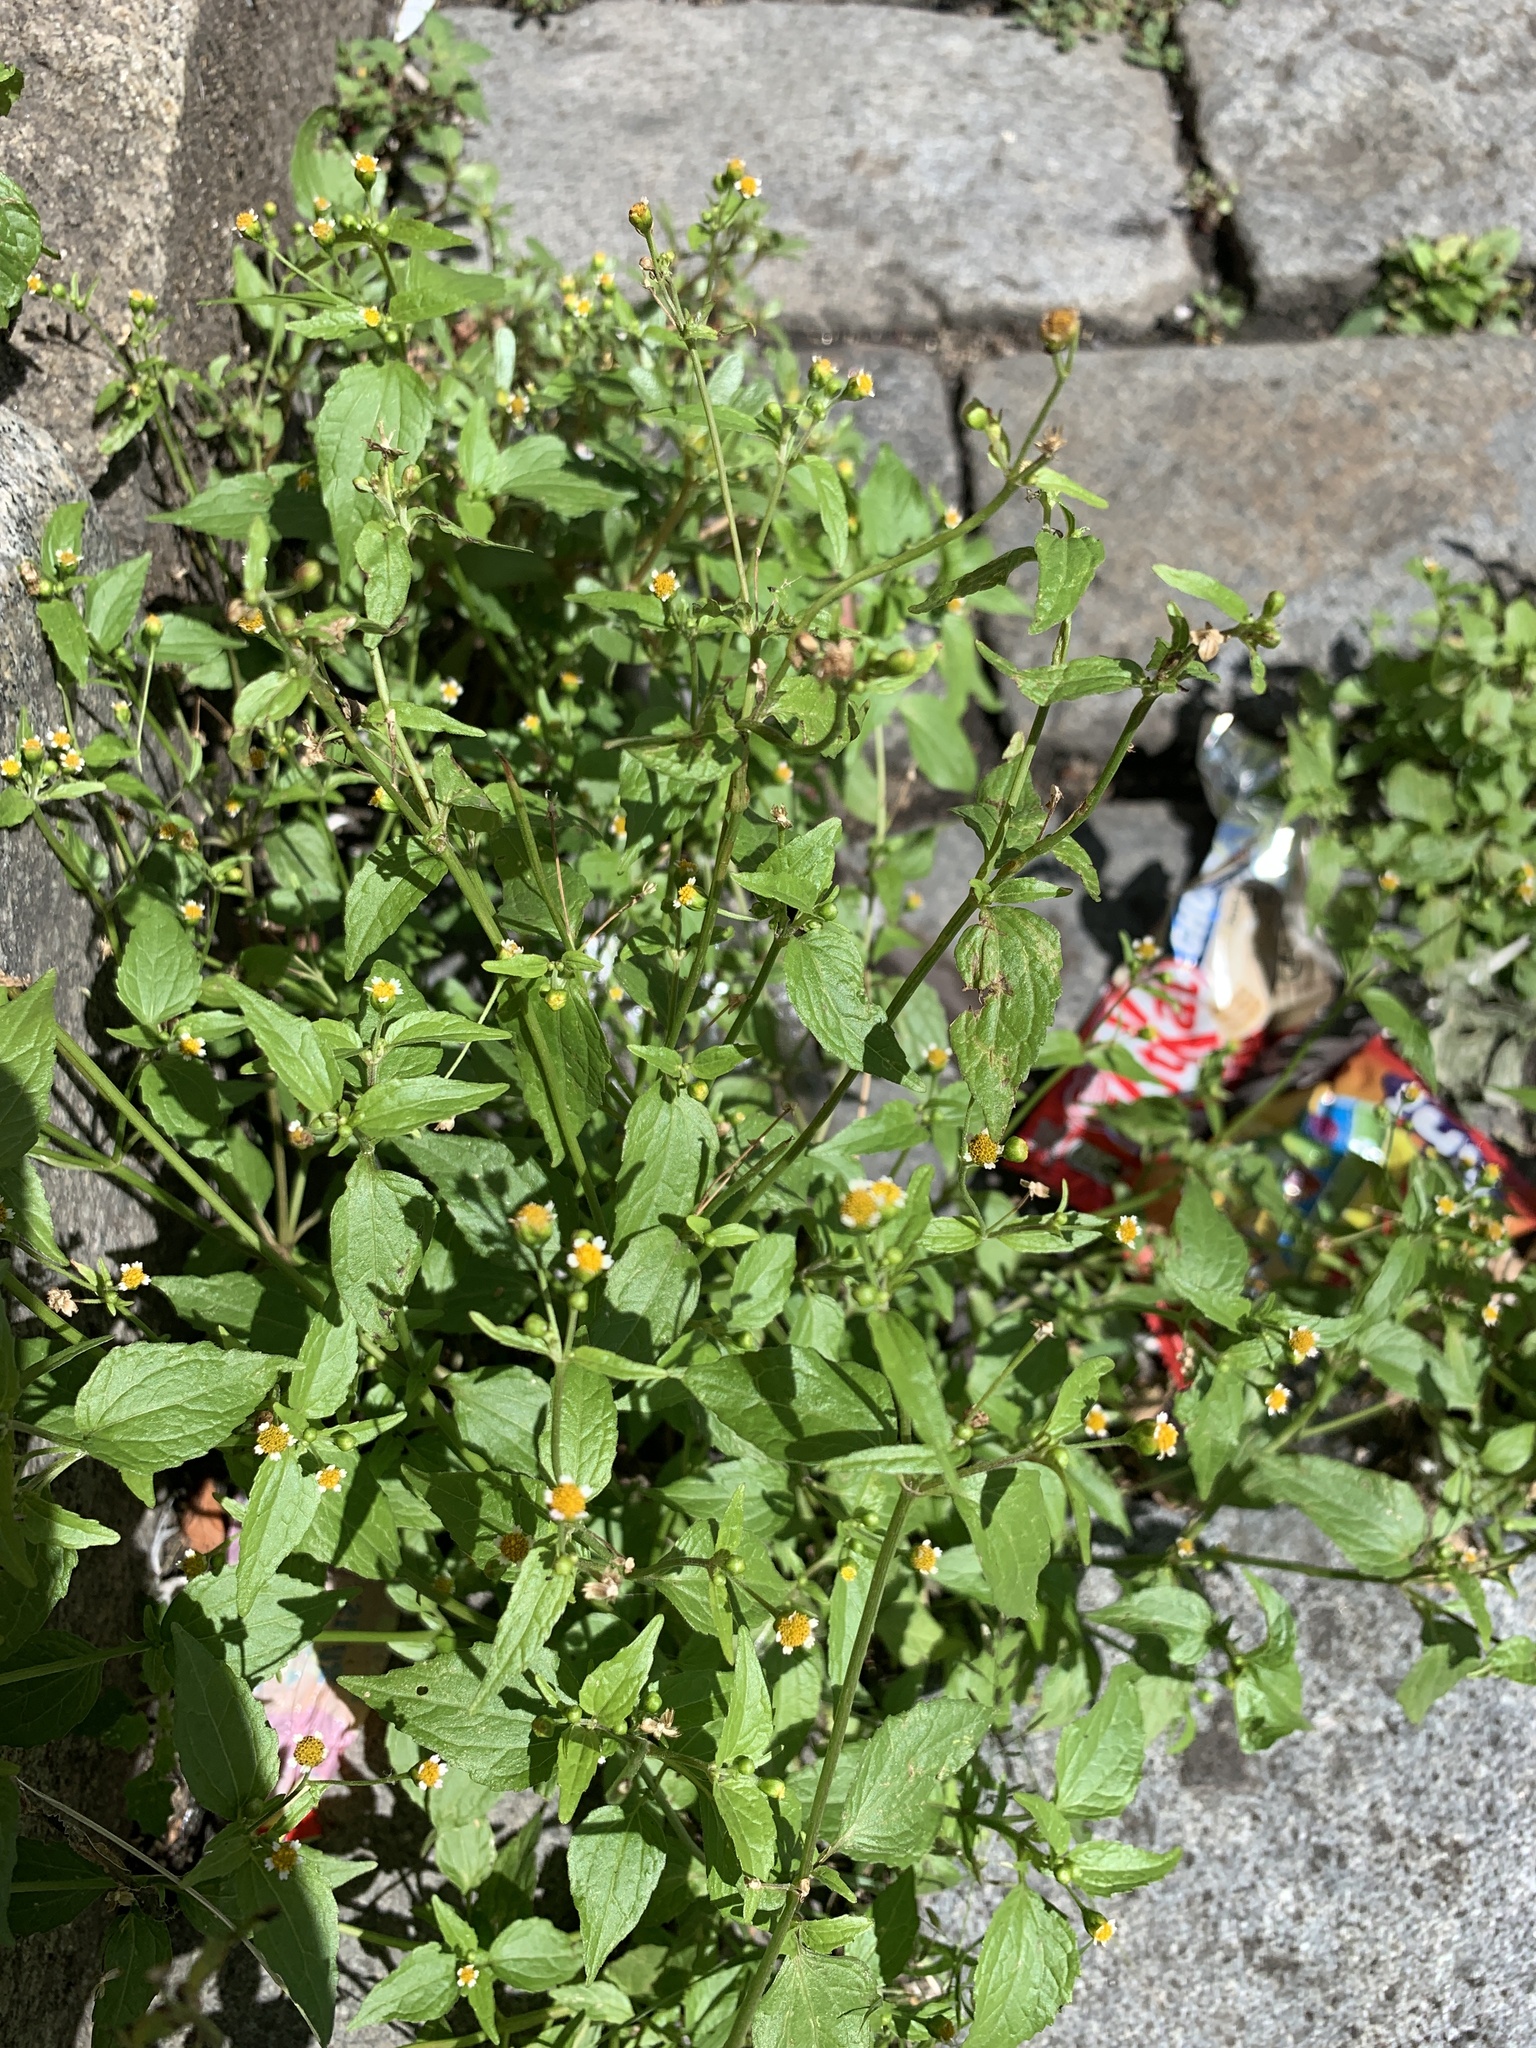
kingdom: Plantae
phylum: Tracheophyta
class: Magnoliopsida
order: Asterales
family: Asteraceae
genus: Galinsoga
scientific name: Galinsoga parviflora
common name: Gallant soldier
